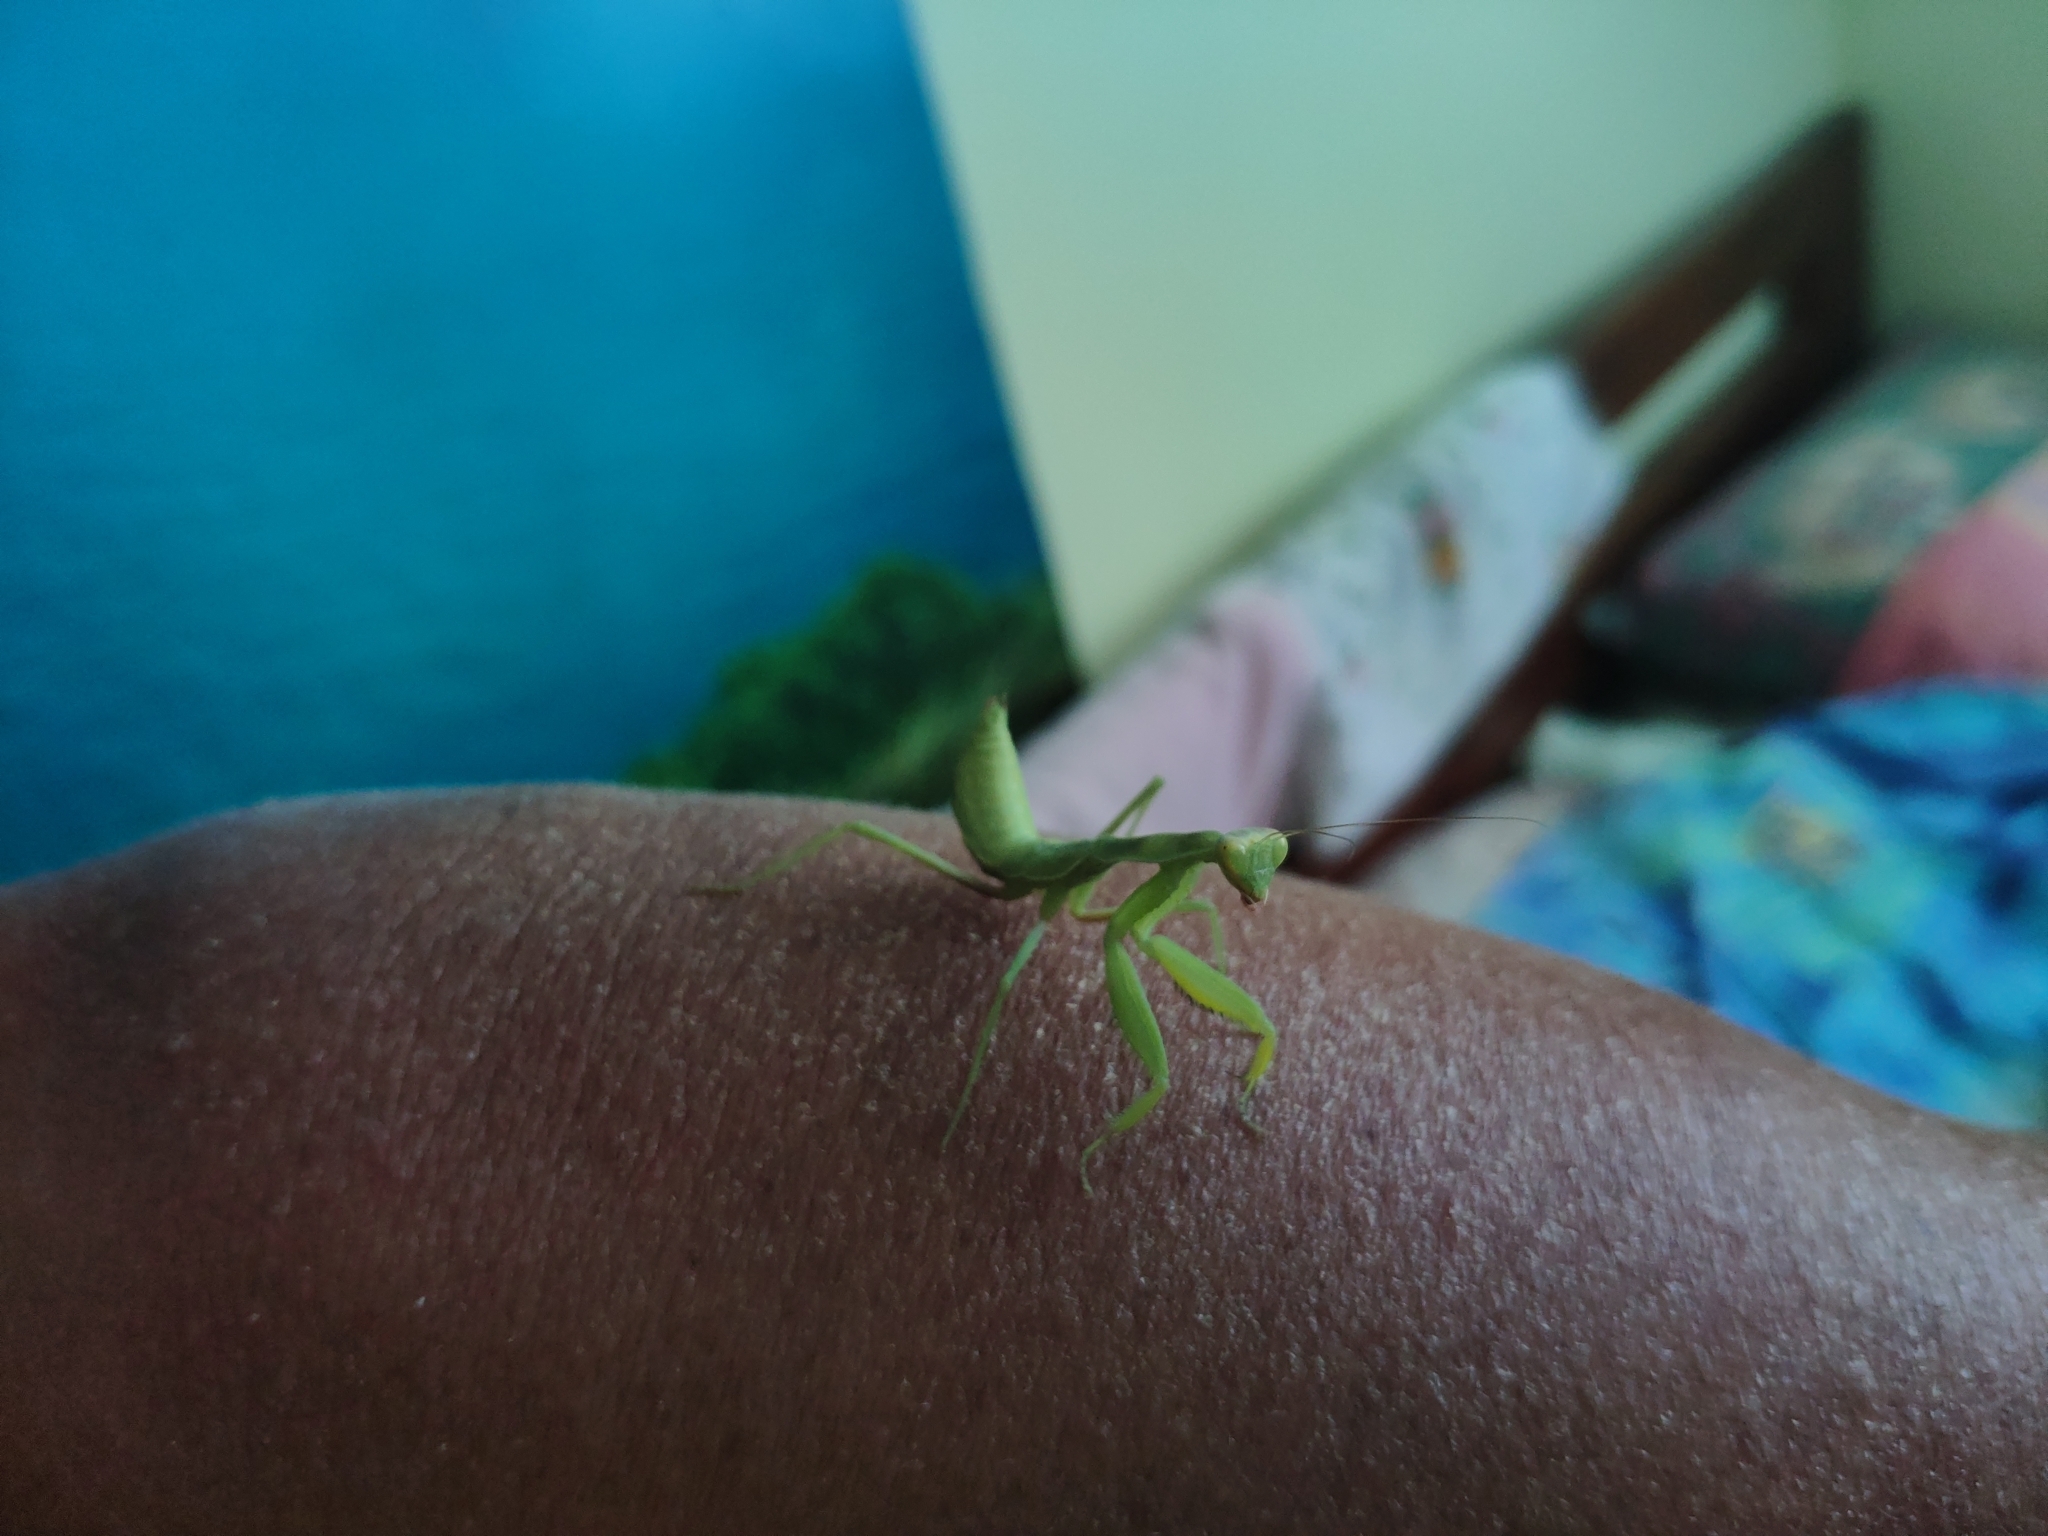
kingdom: Animalia
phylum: Arthropoda
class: Insecta
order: Mantodea
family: Mantidae
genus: Hierodula
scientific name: Hierodula transcaucasica
